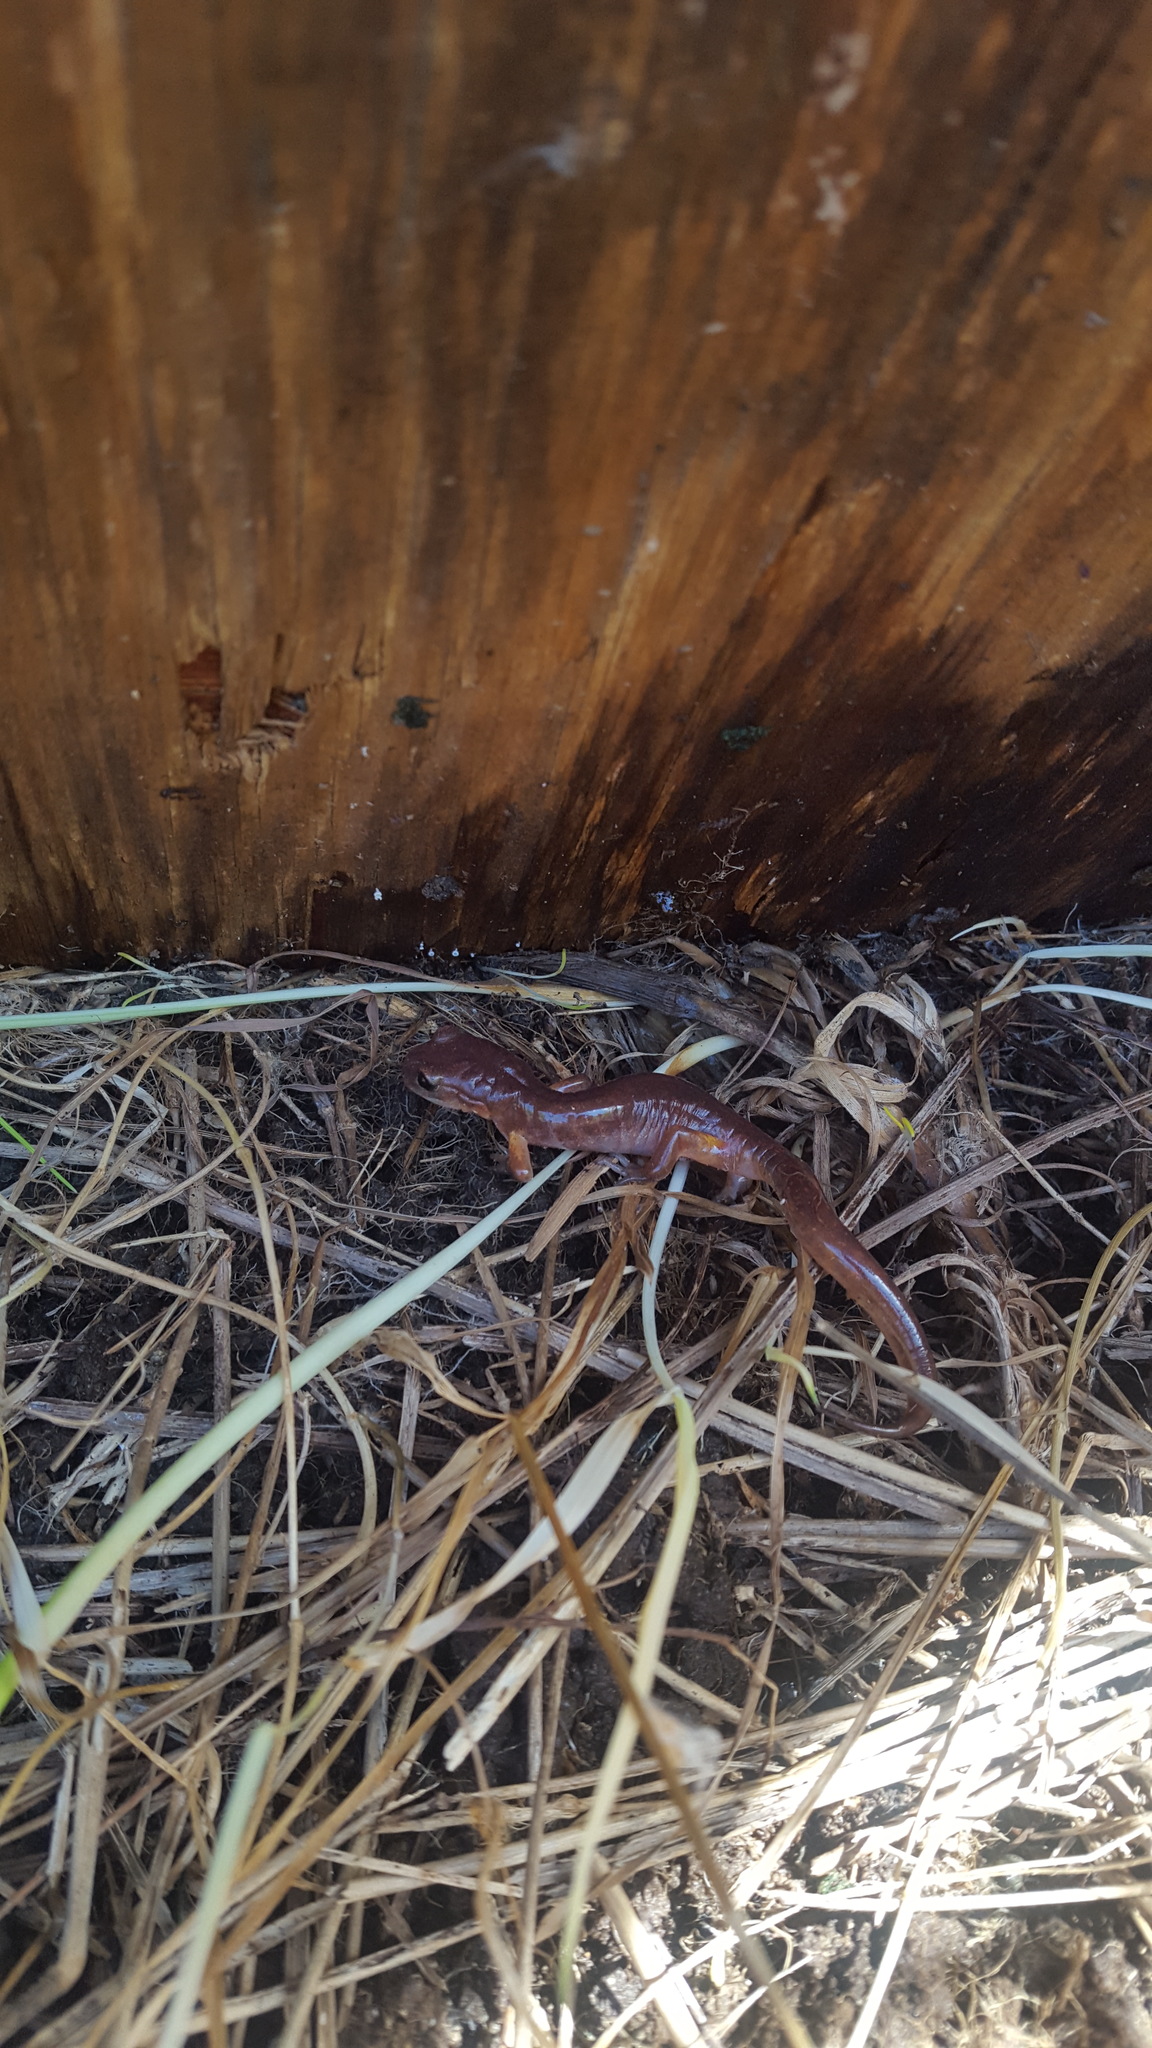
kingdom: Animalia
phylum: Chordata
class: Amphibia
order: Caudata
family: Plethodontidae
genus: Ensatina
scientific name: Ensatina eschscholtzii
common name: Ensatina
